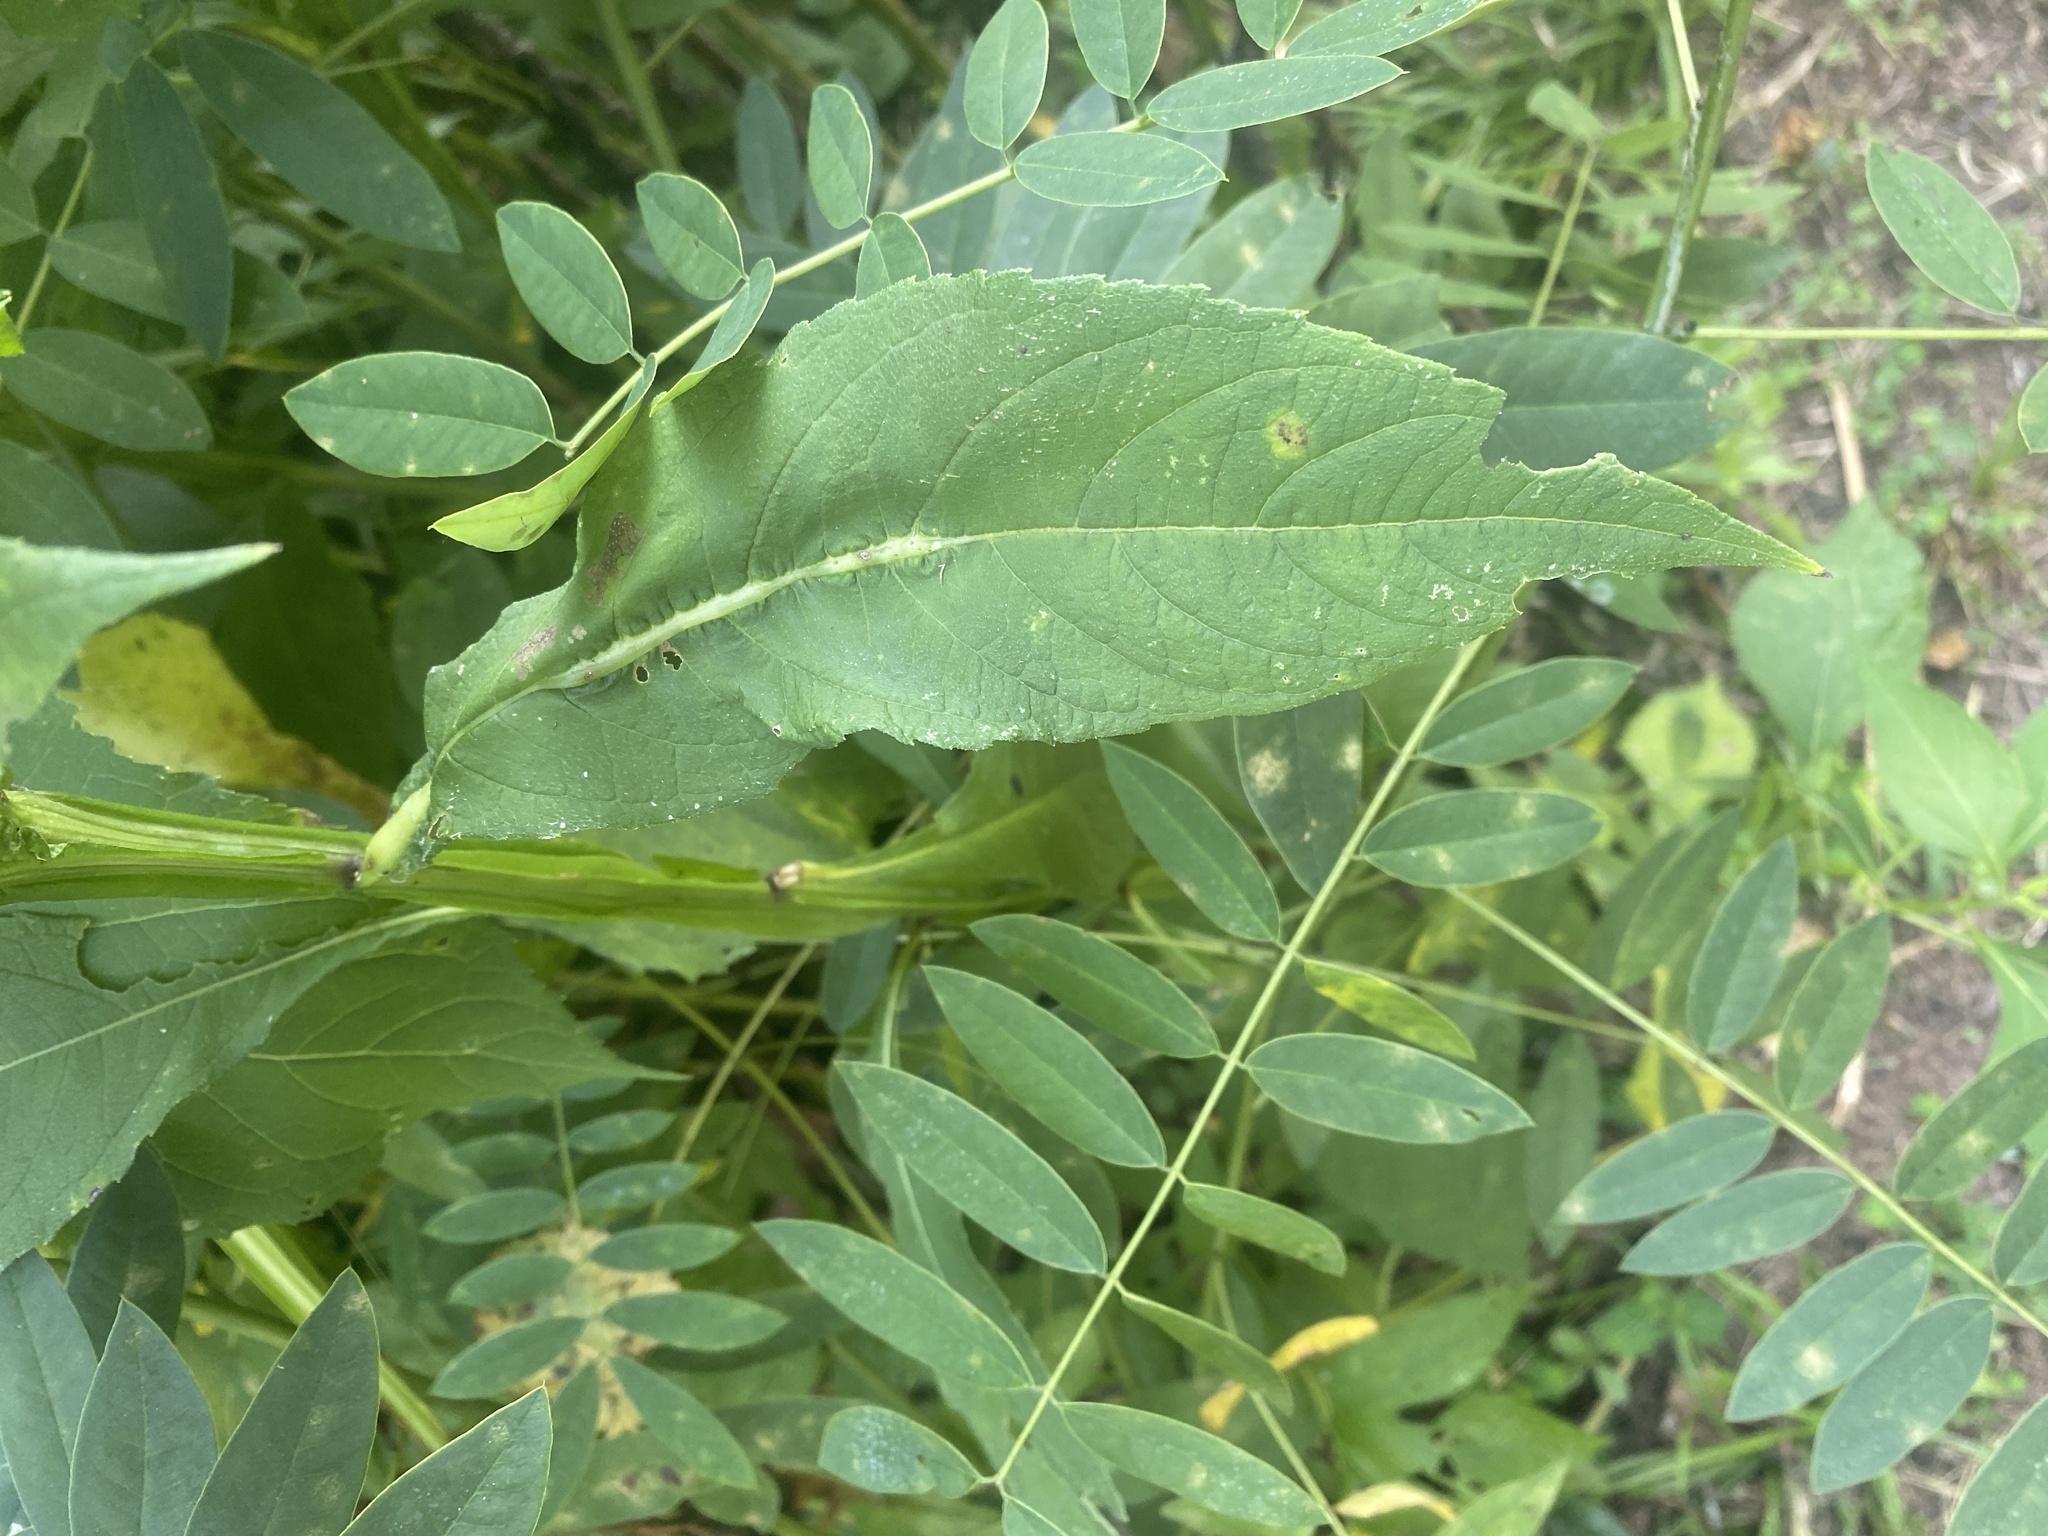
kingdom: Animalia
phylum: Arthropoda
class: Insecta
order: Diptera
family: Cecidomyiidae
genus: Neolasioptera
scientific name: Neolasioptera verbesinae
